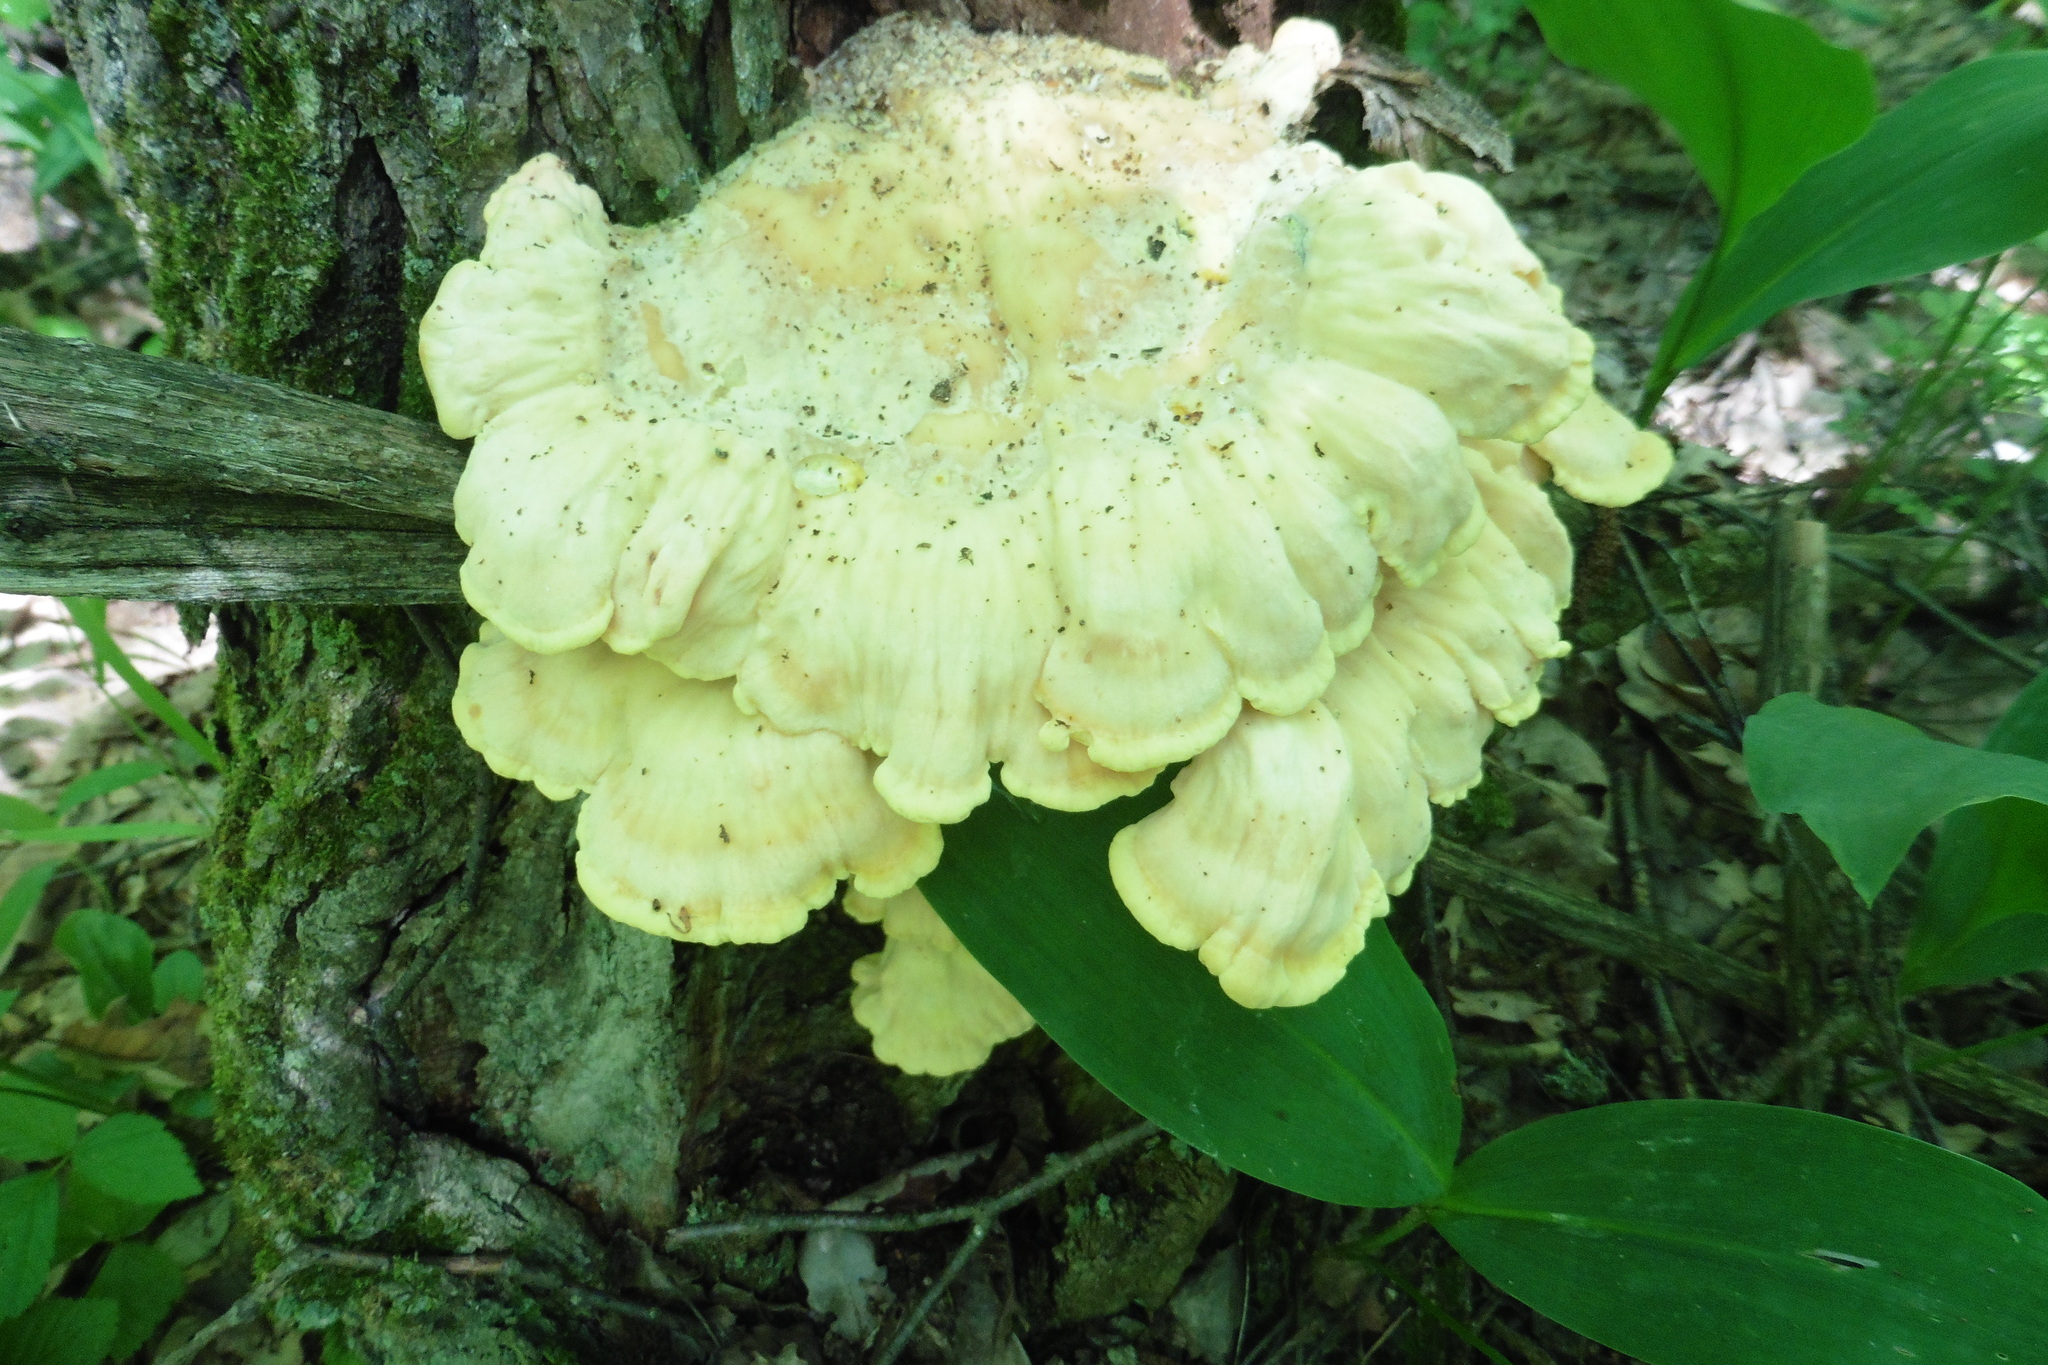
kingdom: Fungi
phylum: Basidiomycota
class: Agaricomycetes
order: Polyporales
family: Laetiporaceae
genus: Laetiporus
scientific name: Laetiporus sulphureus
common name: Chicken of the woods
